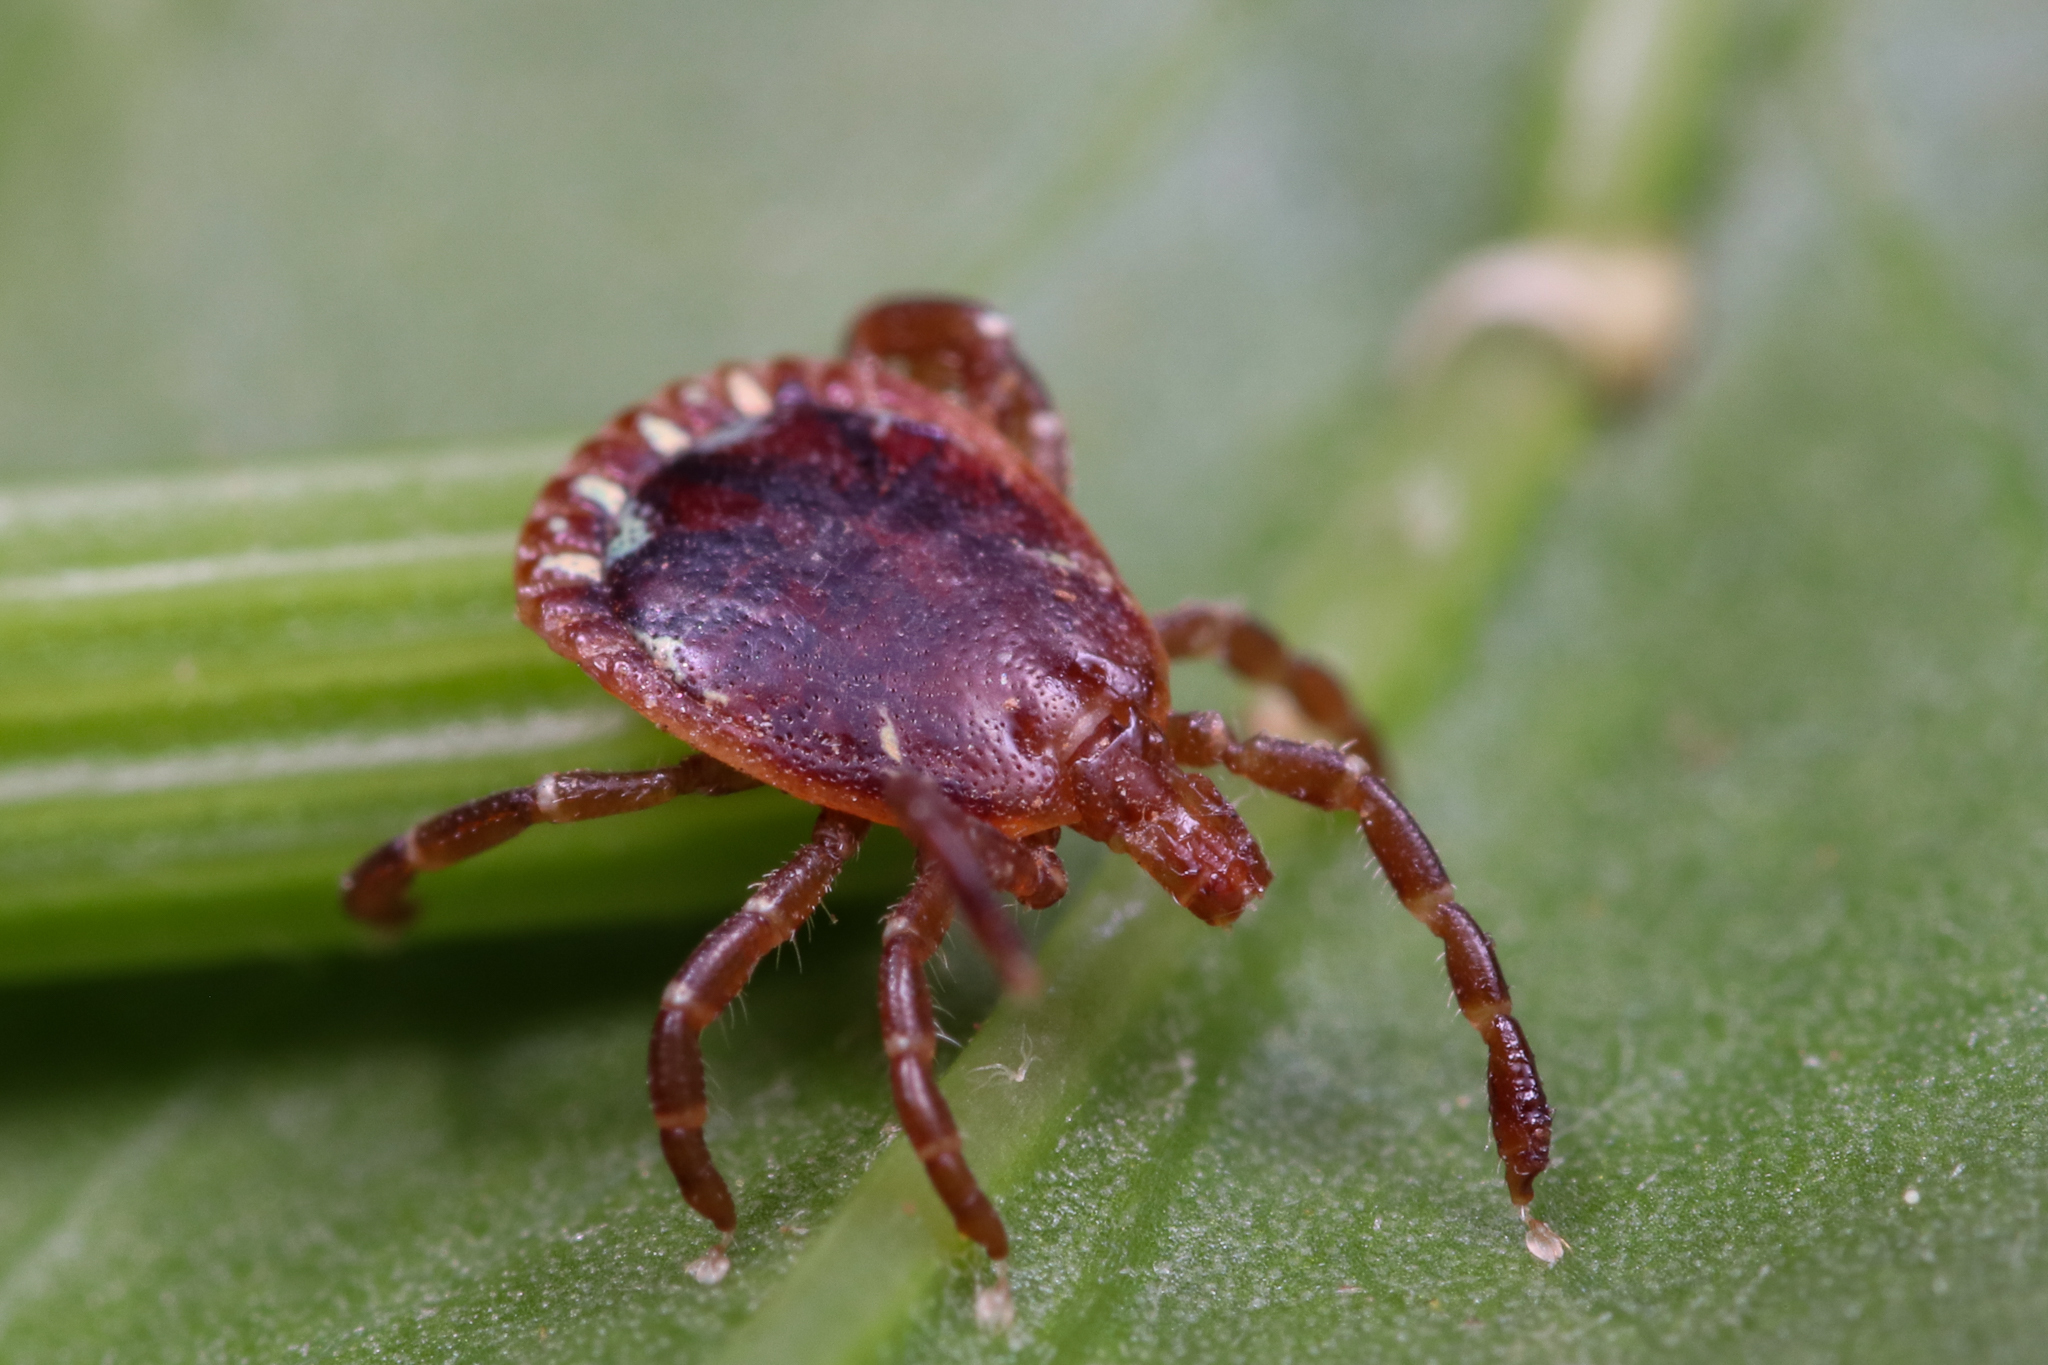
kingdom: Animalia
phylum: Arthropoda
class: Arachnida
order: Ixodida
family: Ixodidae
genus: Amblyomma
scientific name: Amblyomma americanum
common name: Lone star tick
